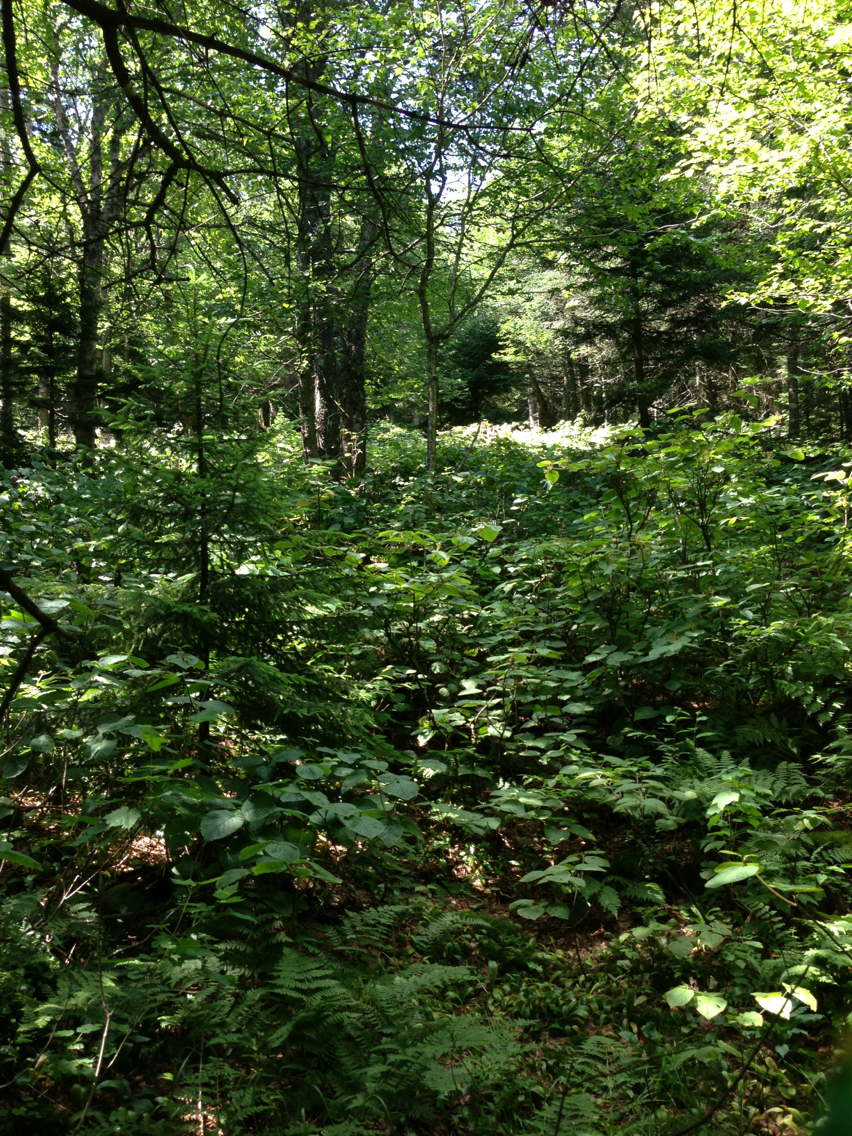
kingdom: Plantae
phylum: Tracheophyta
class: Magnoliopsida
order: Dipsacales
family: Viburnaceae
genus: Viburnum
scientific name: Viburnum lantanoides
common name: Hobblebush
